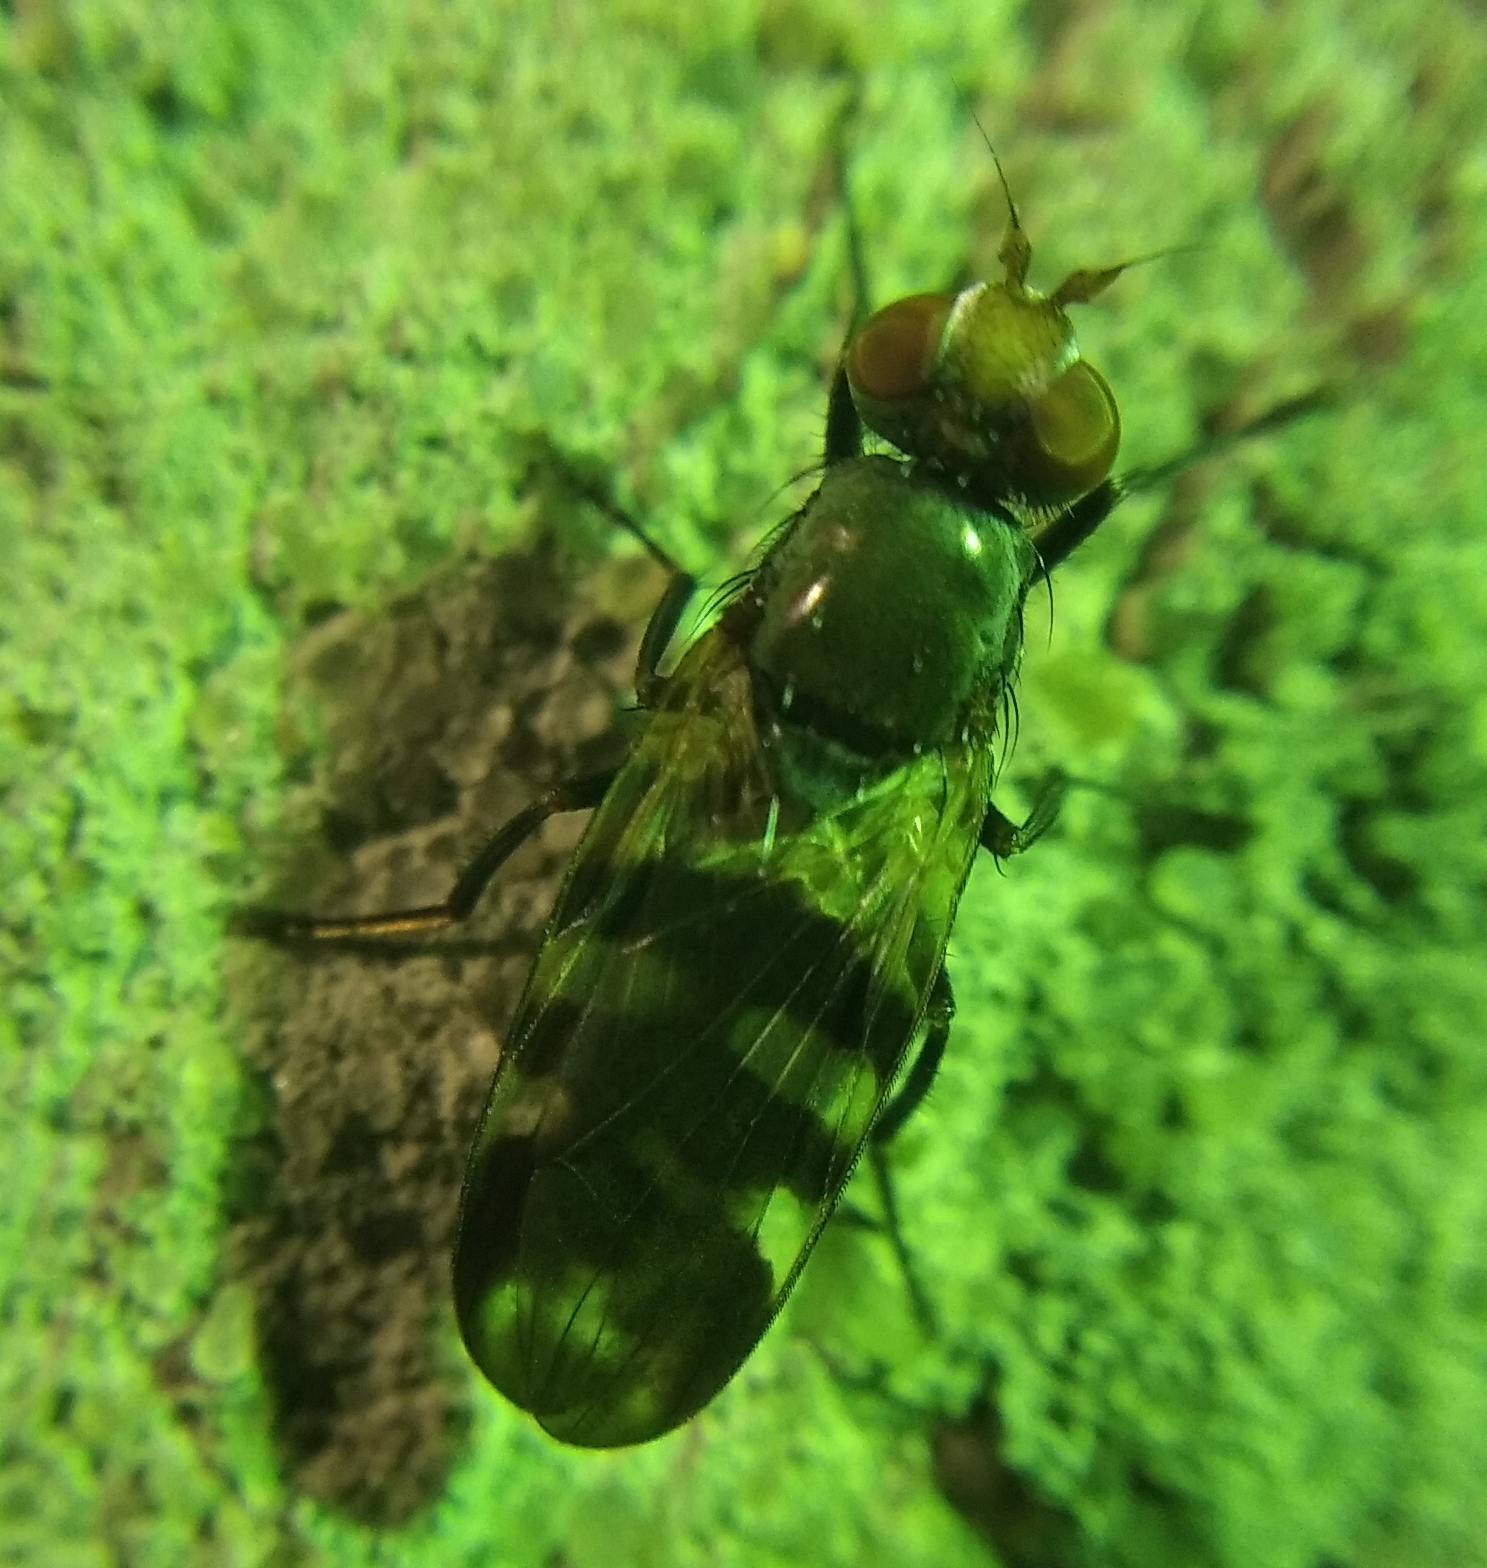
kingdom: Animalia
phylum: Arthropoda
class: Insecta
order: Diptera
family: Ulidiidae
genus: Ceroxys
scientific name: Ceroxys urticae
